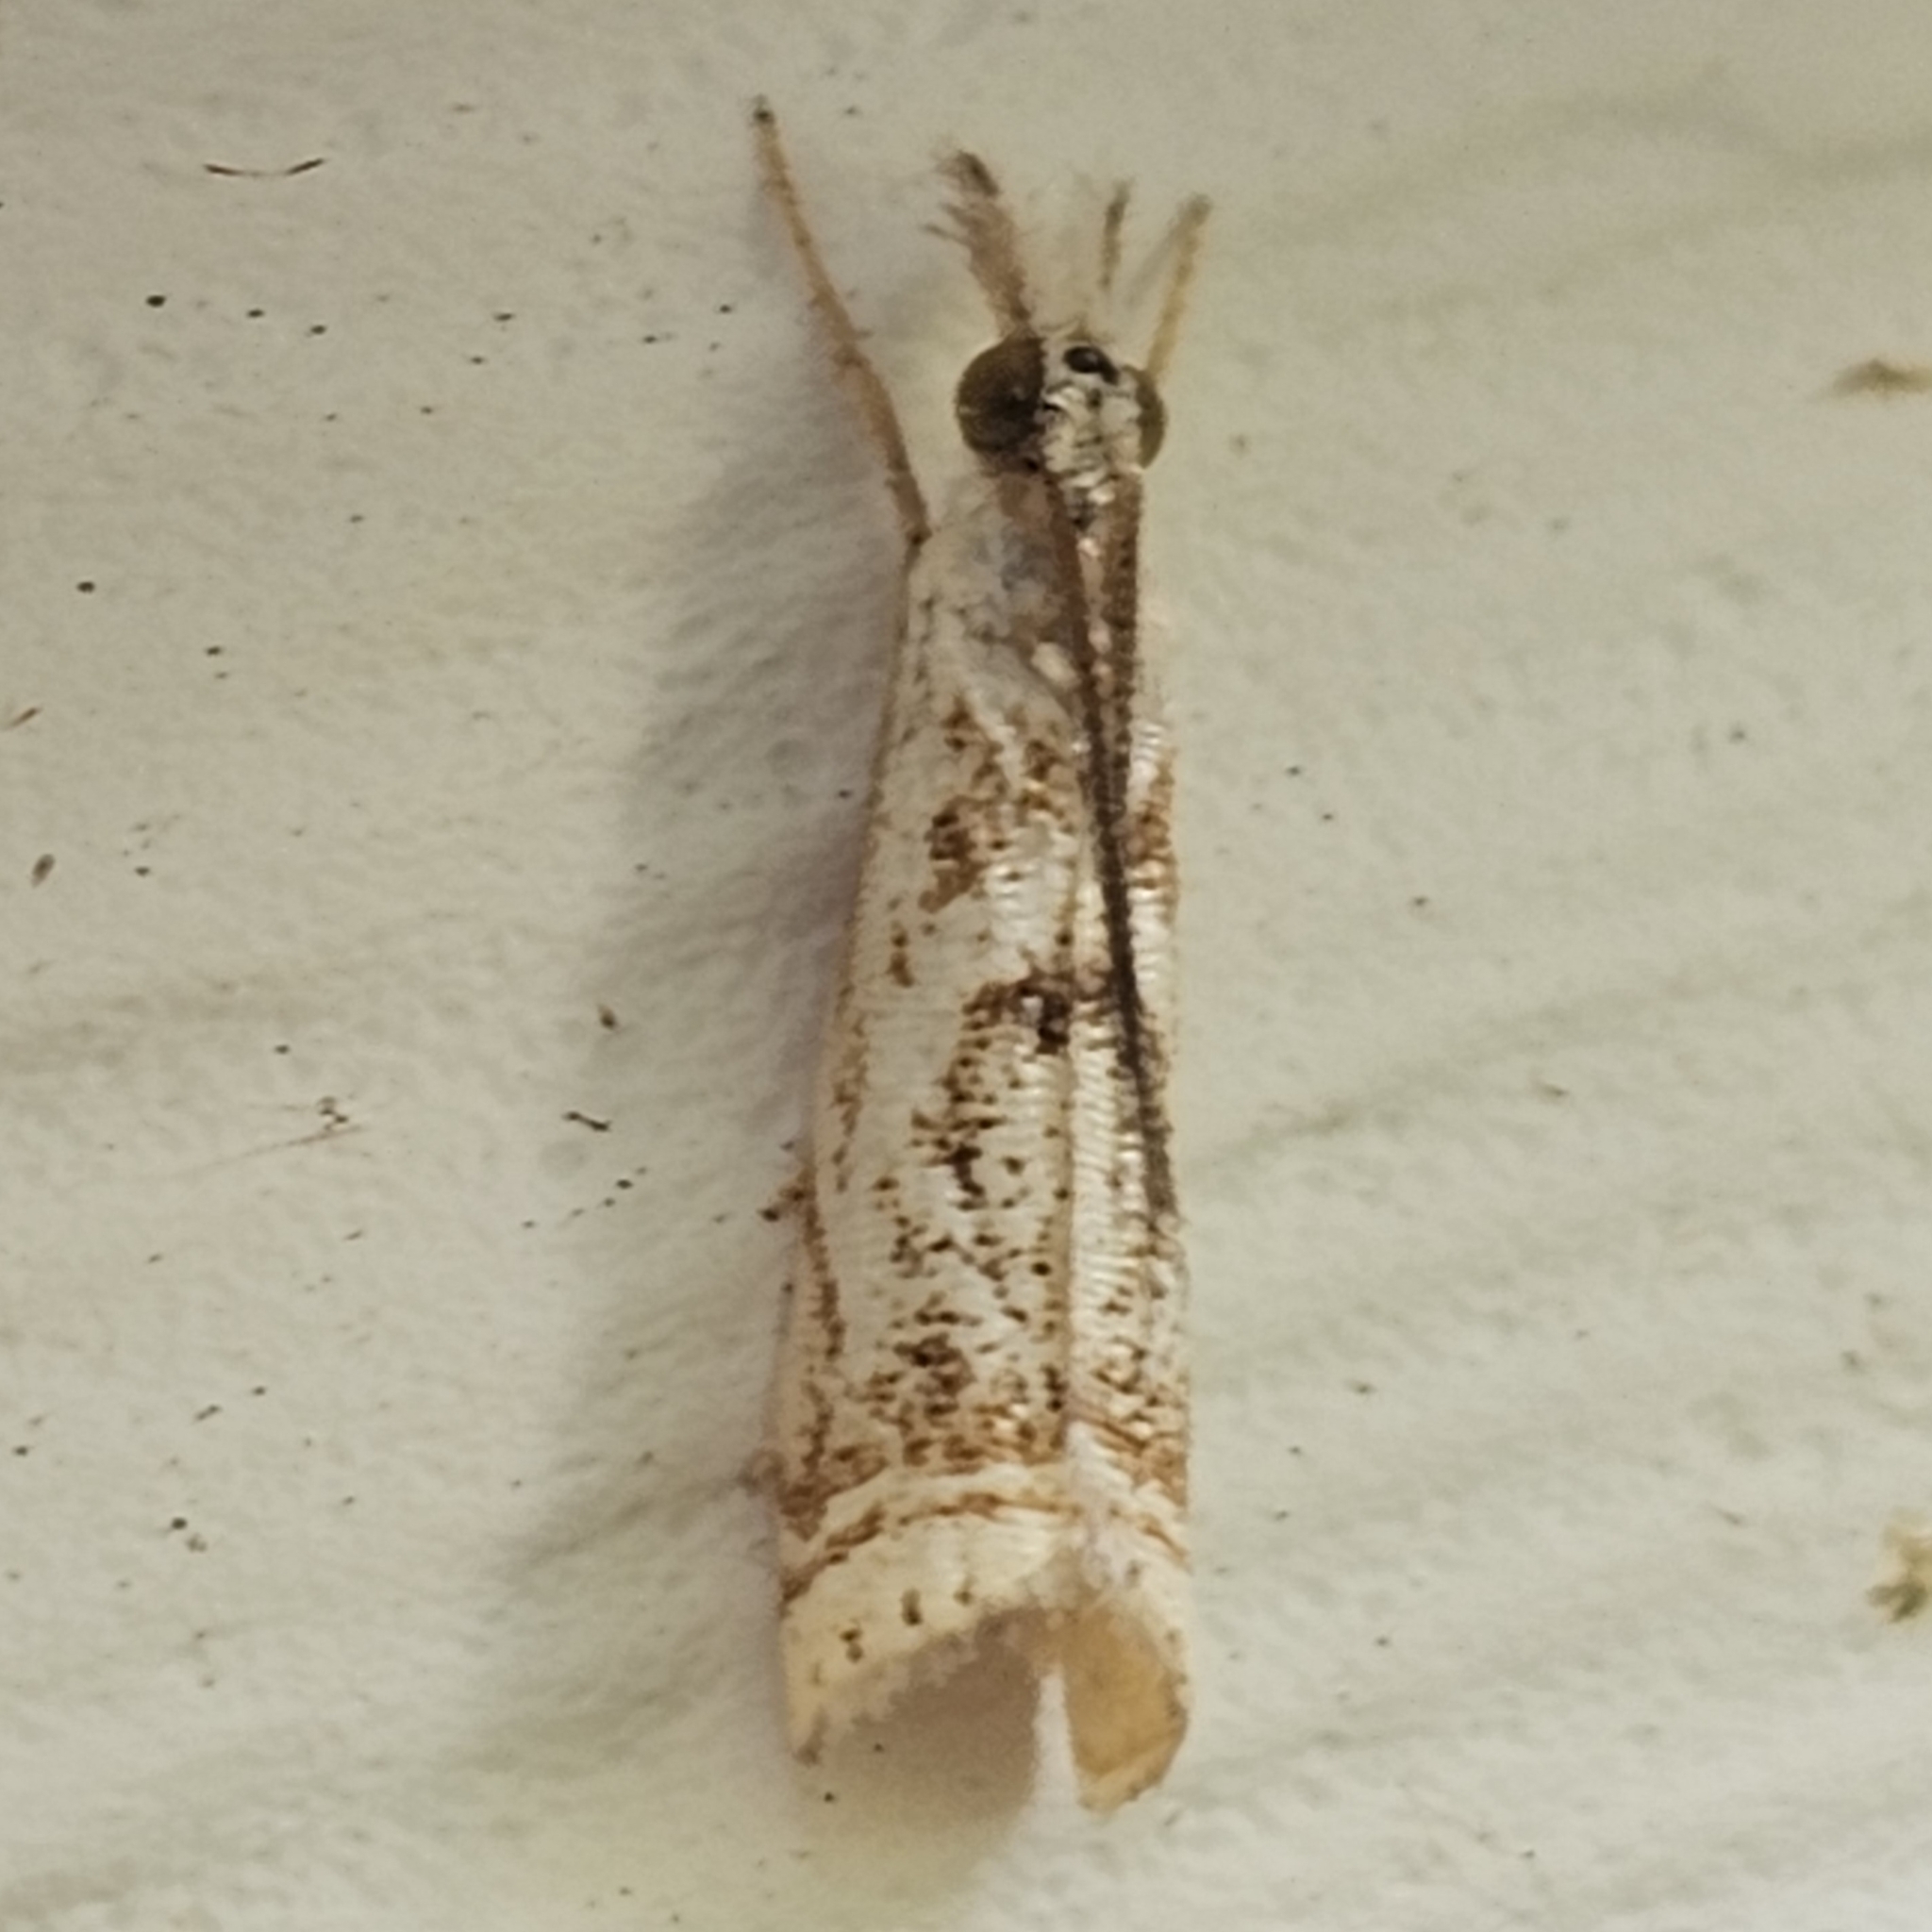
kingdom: Animalia
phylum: Arthropoda
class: Insecta
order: Lepidoptera
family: Crambidae
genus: Microcrambus
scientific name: Microcrambus elegans
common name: Elegant grass-veneer
